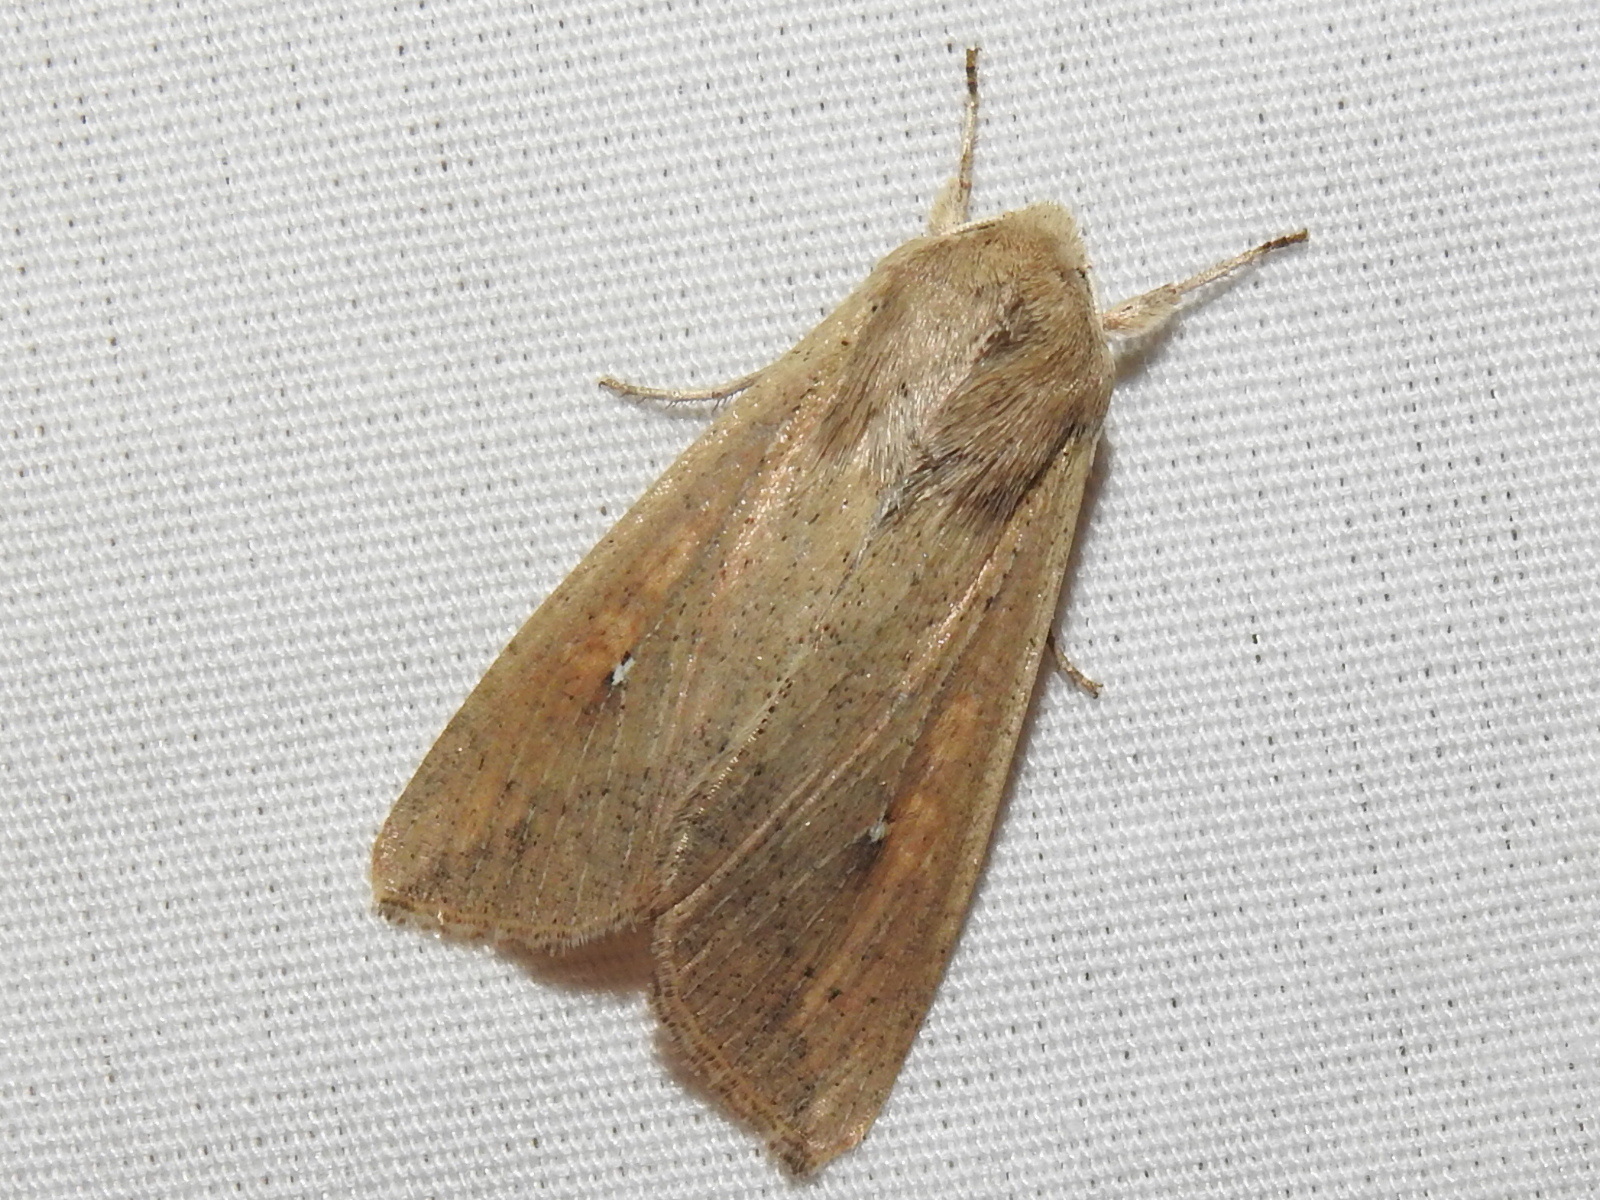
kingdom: Animalia
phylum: Arthropoda
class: Insecta
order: Lepidoptera
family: Noctuidae
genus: Mythimna
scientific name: Mythimna unipuncta
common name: White-speck
